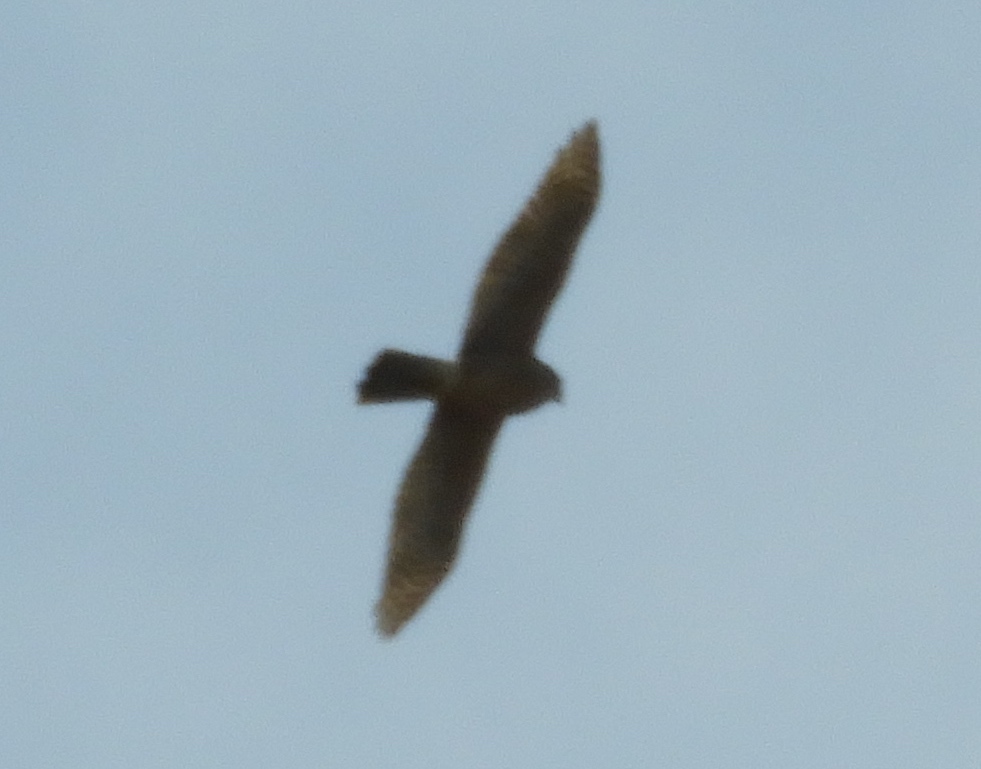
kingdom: Animalia
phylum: Chordata
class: Aves
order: Accipitriformes
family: Accipitridae
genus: Accipiter
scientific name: Accipiter cooperii
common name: Cooper's hawk
